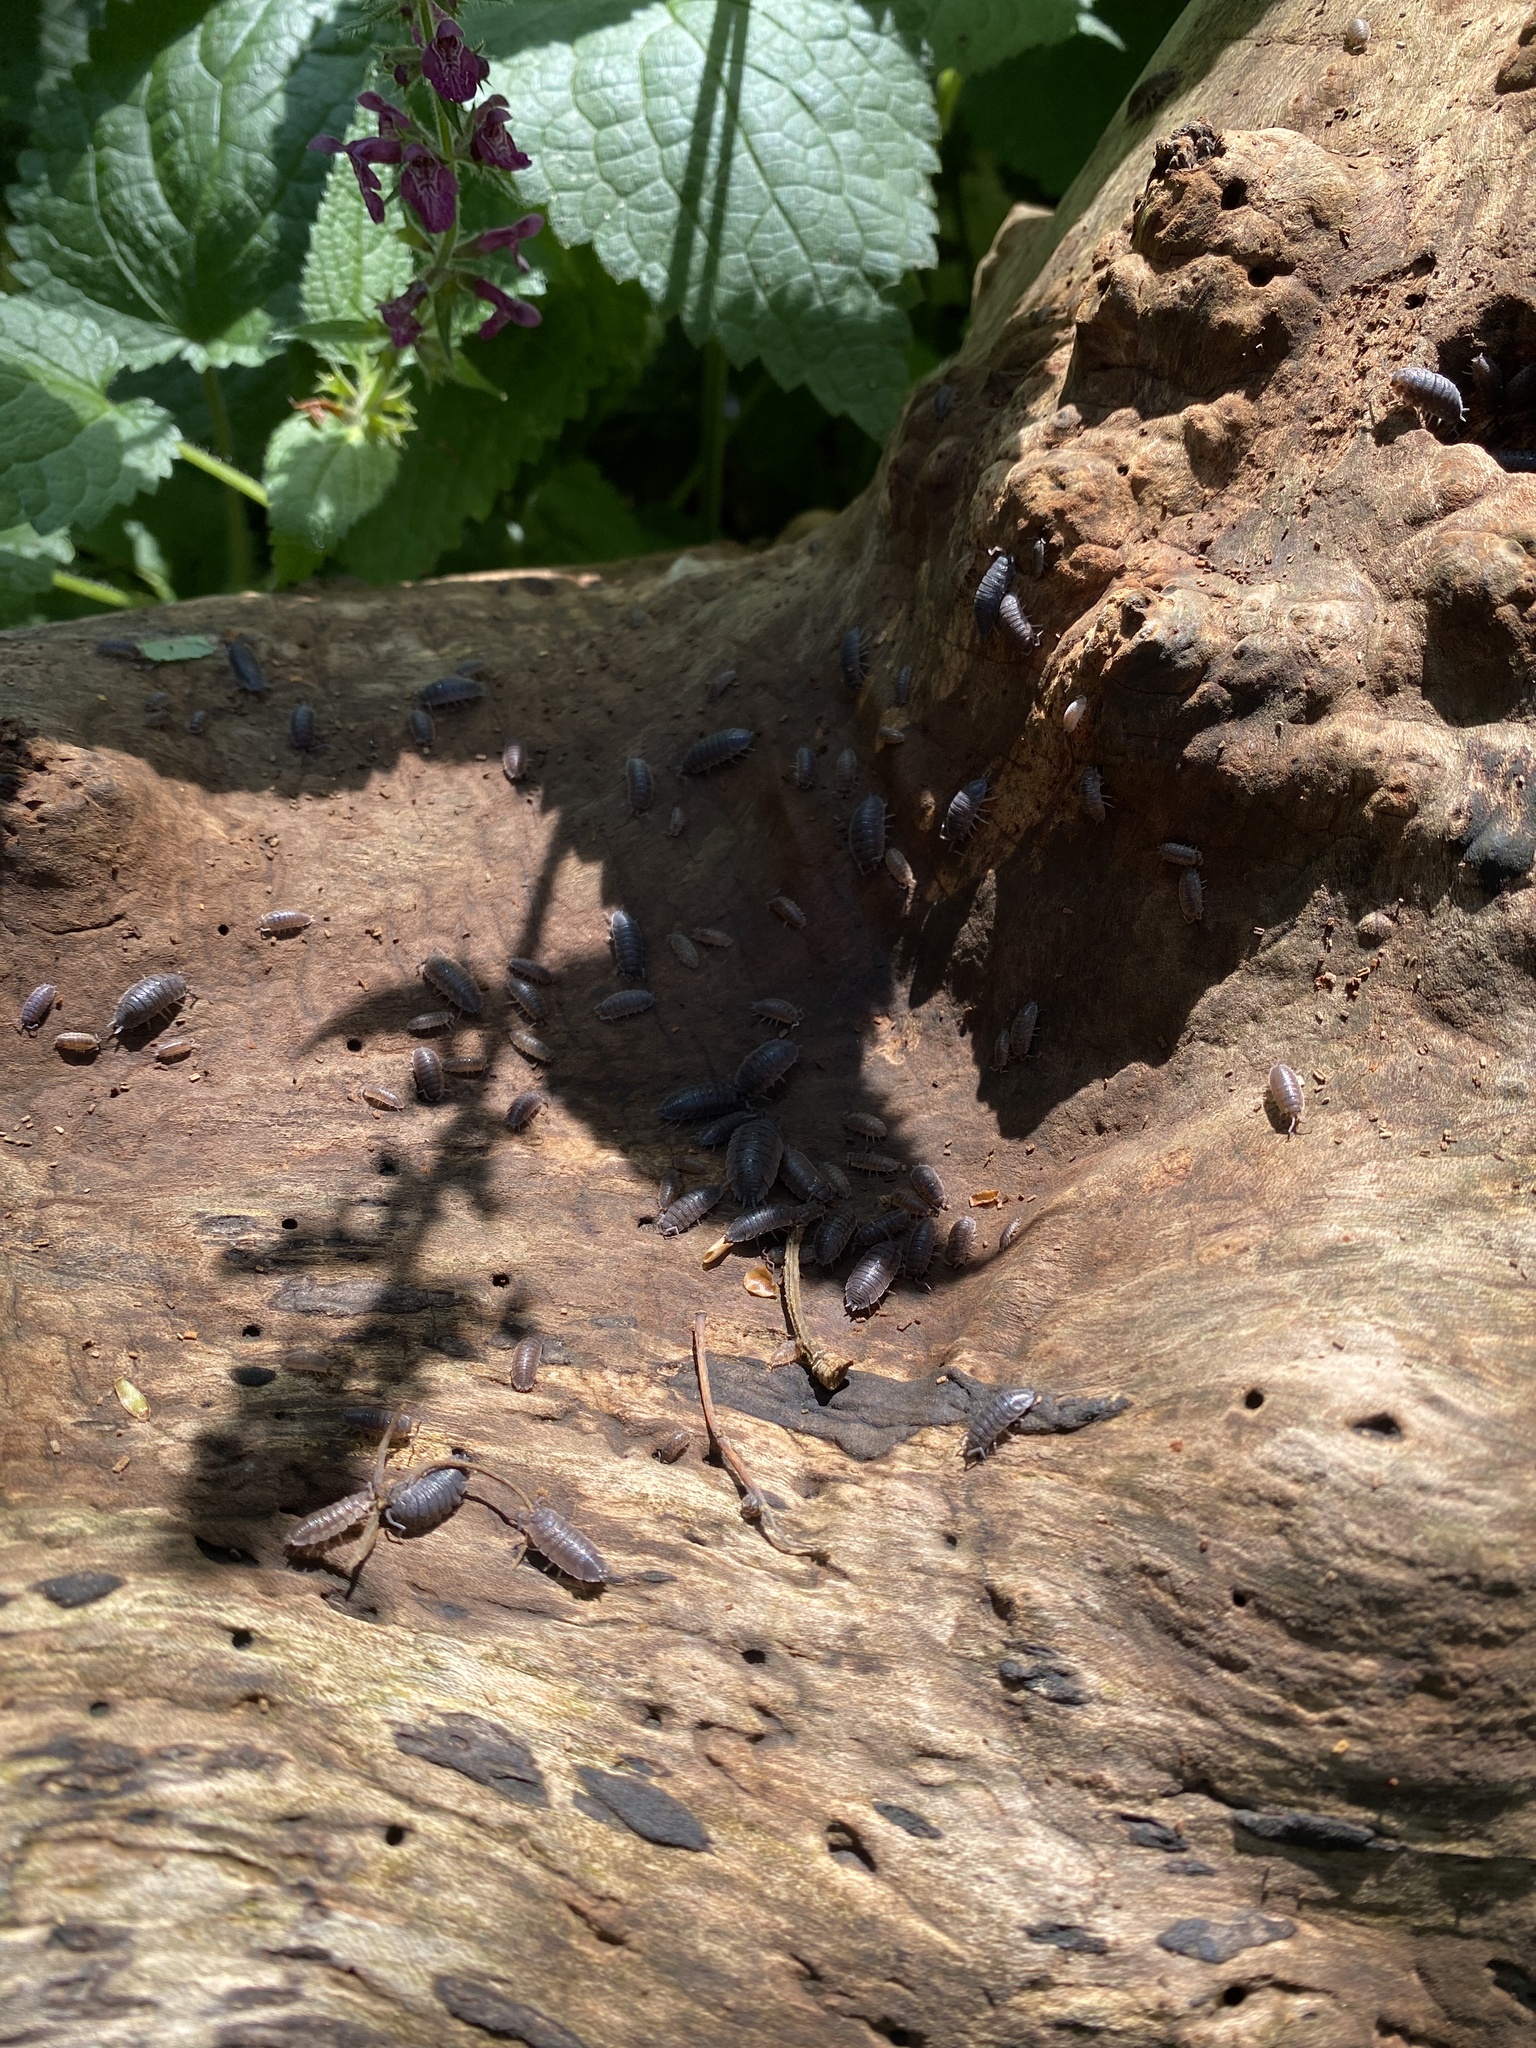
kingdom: Animalia
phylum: Arthropoda
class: Malacostraca
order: Isopoda
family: Porcellionidae
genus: Porcellio
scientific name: Porcellio scaber
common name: Common rough woodlouse
